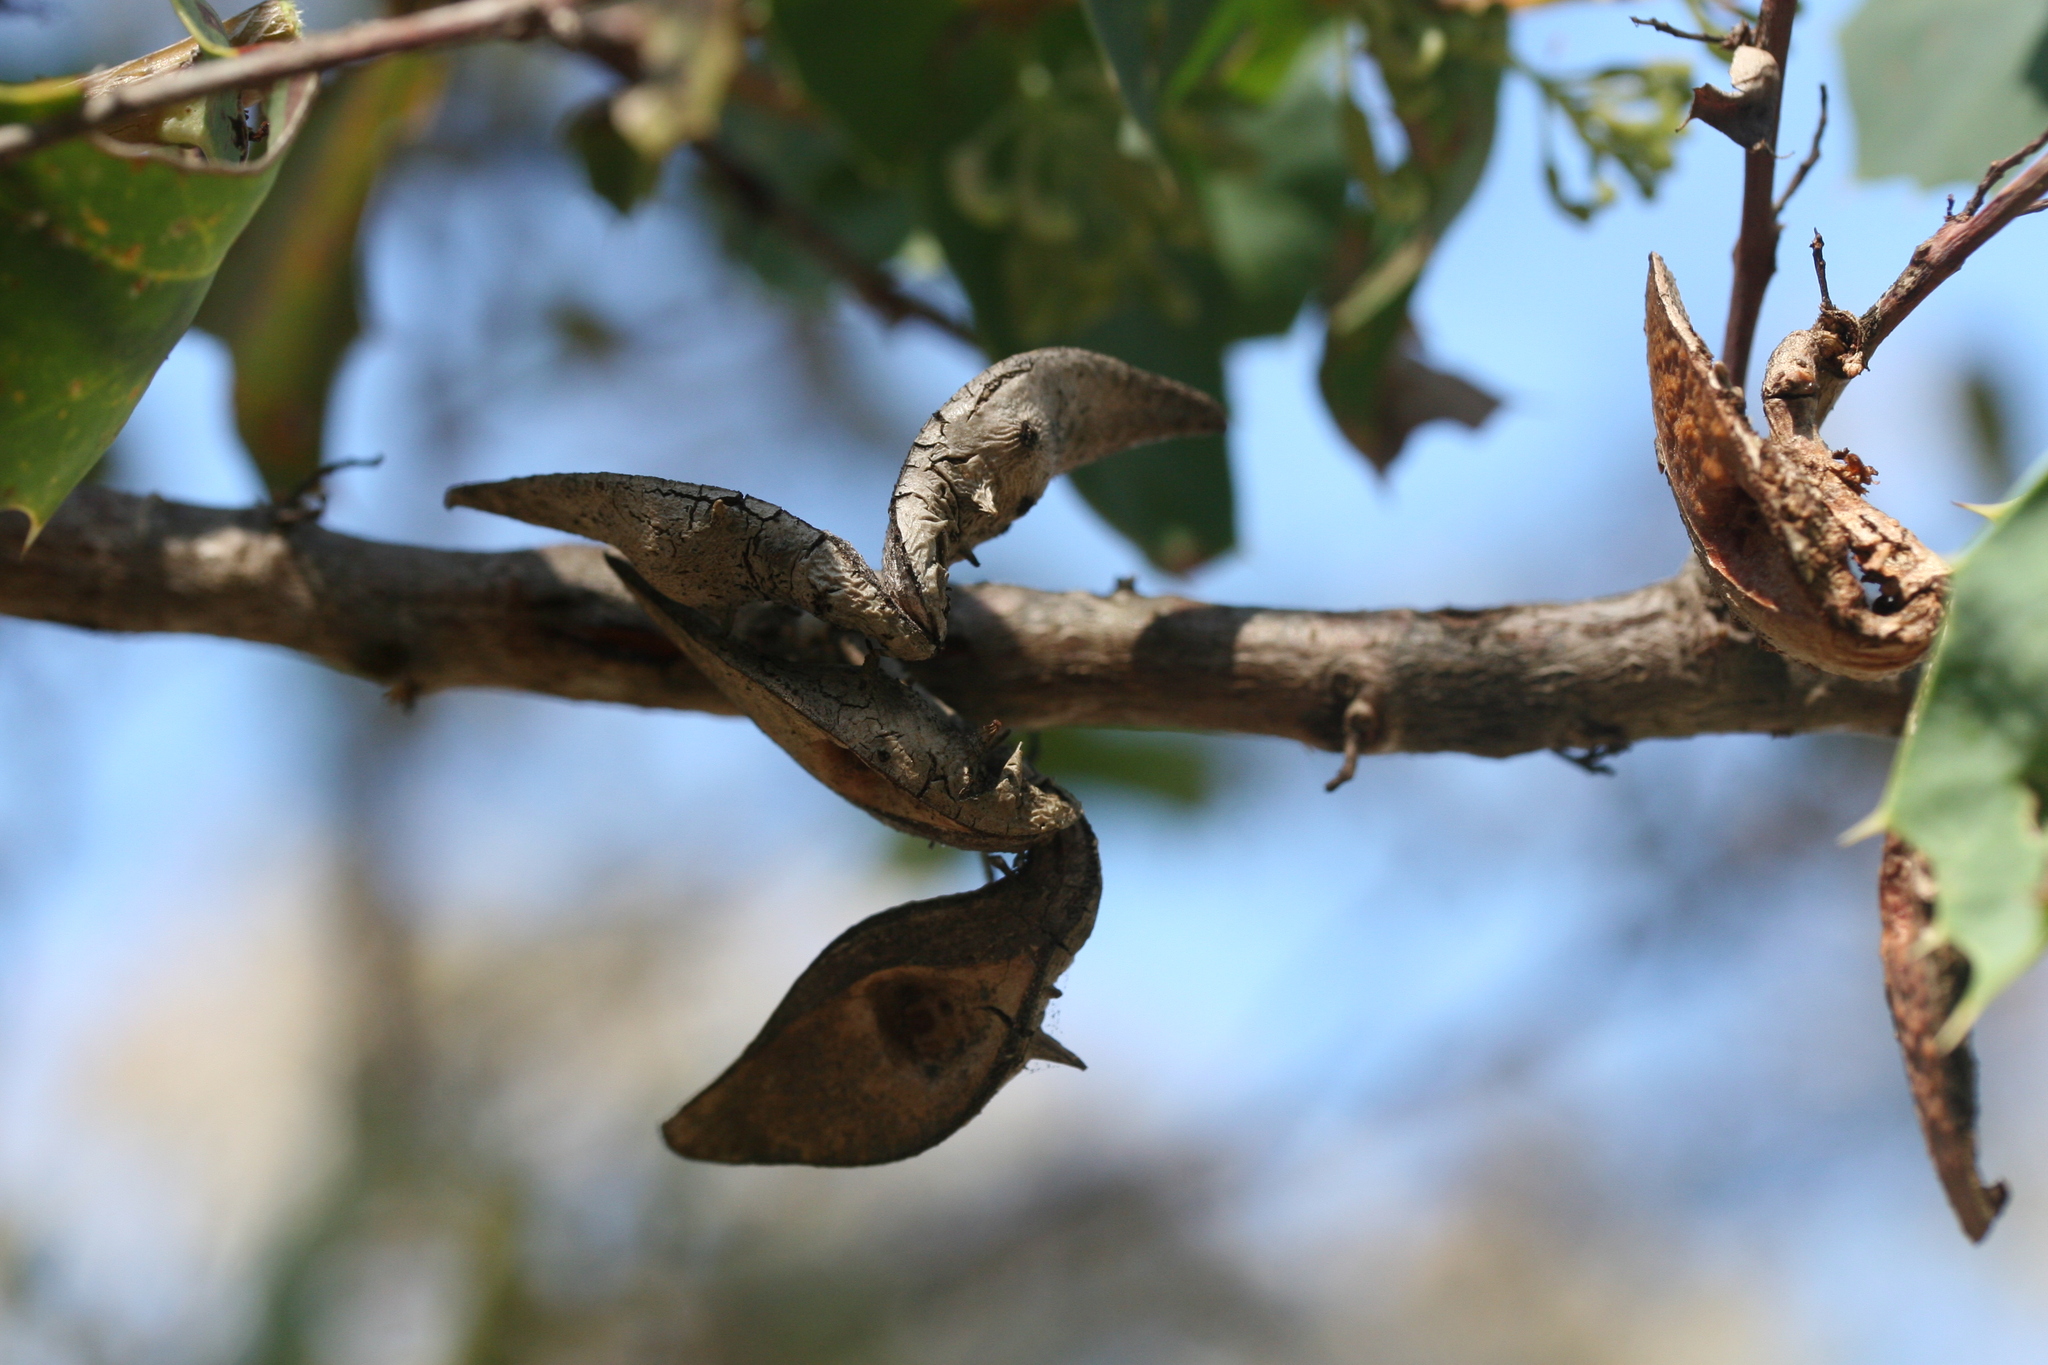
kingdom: Plantae
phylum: Tracheophyta
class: Magnoliopsida
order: Proteales
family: Proteaceae
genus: Hakea
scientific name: Hakea prostrata
